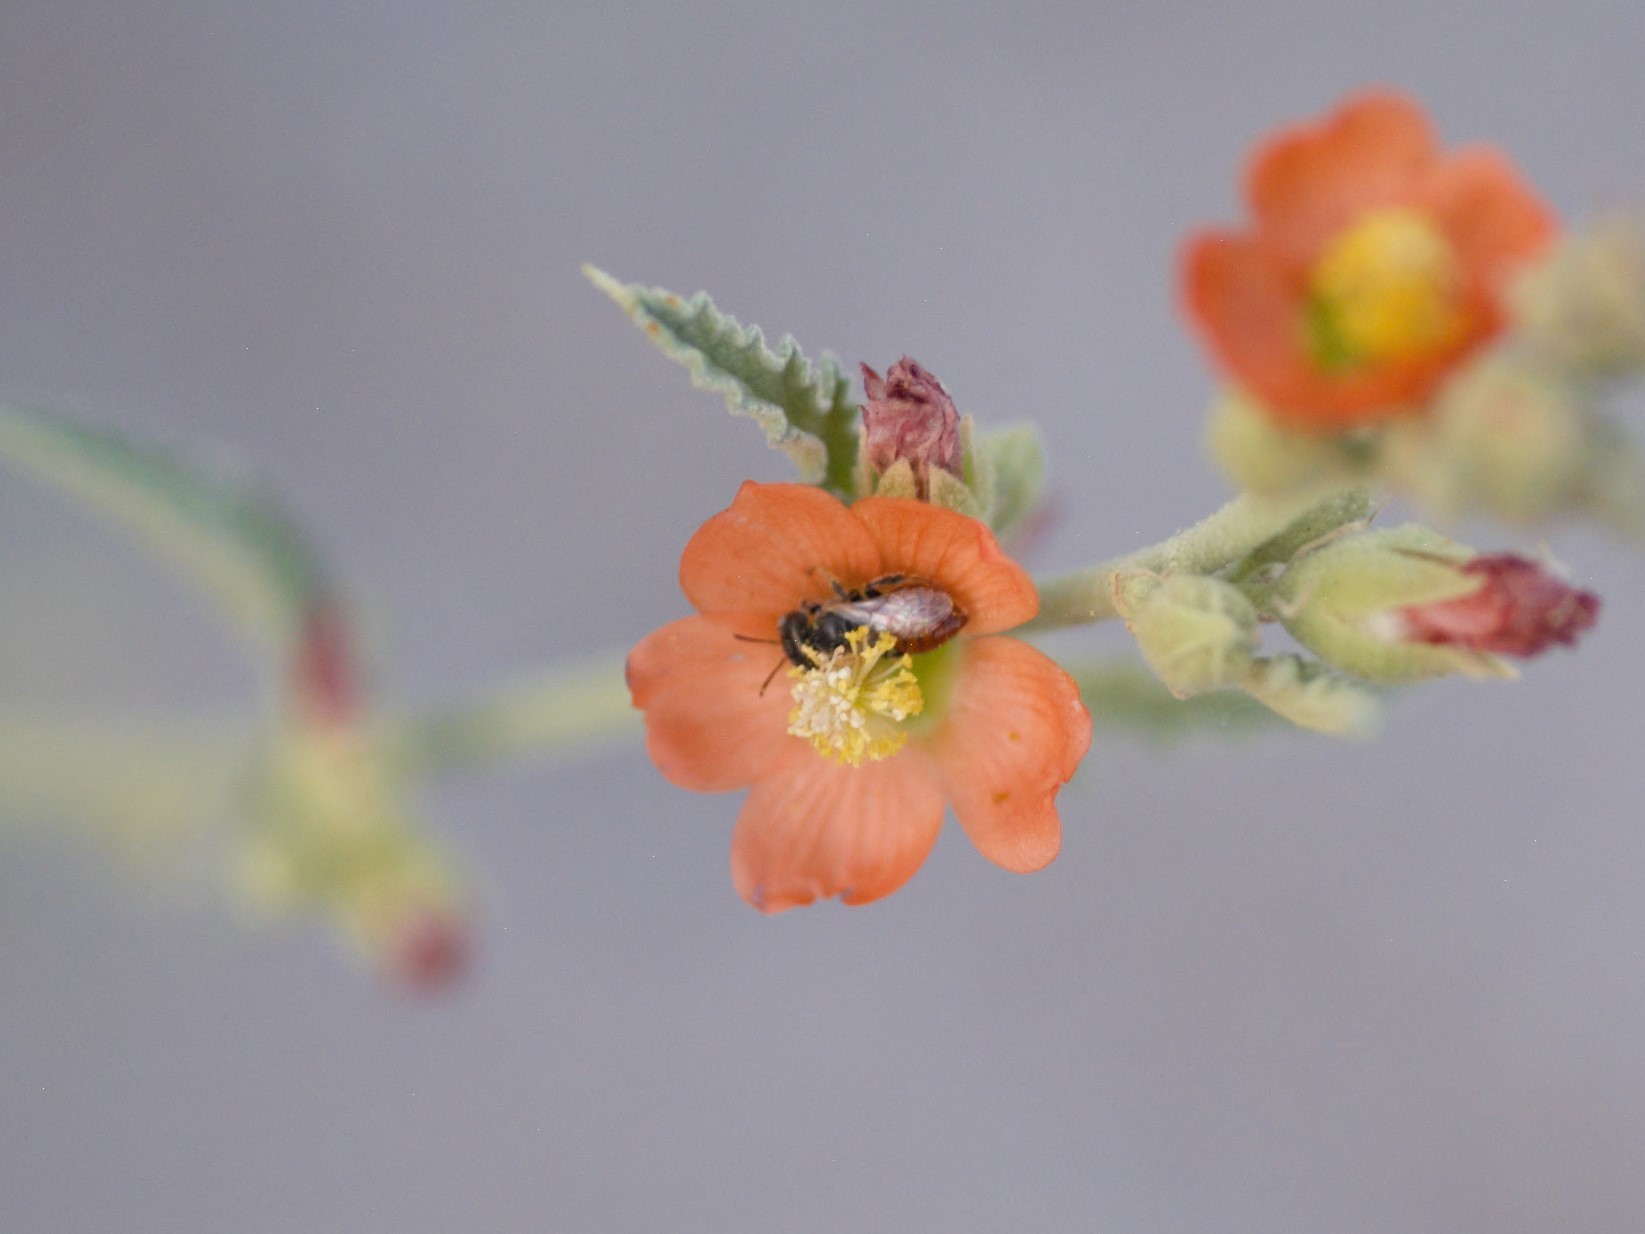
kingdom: Animalia
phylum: Arthropoda
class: Insecta
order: Hymenoptera
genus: Macroteropsis
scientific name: Macroteropsis
